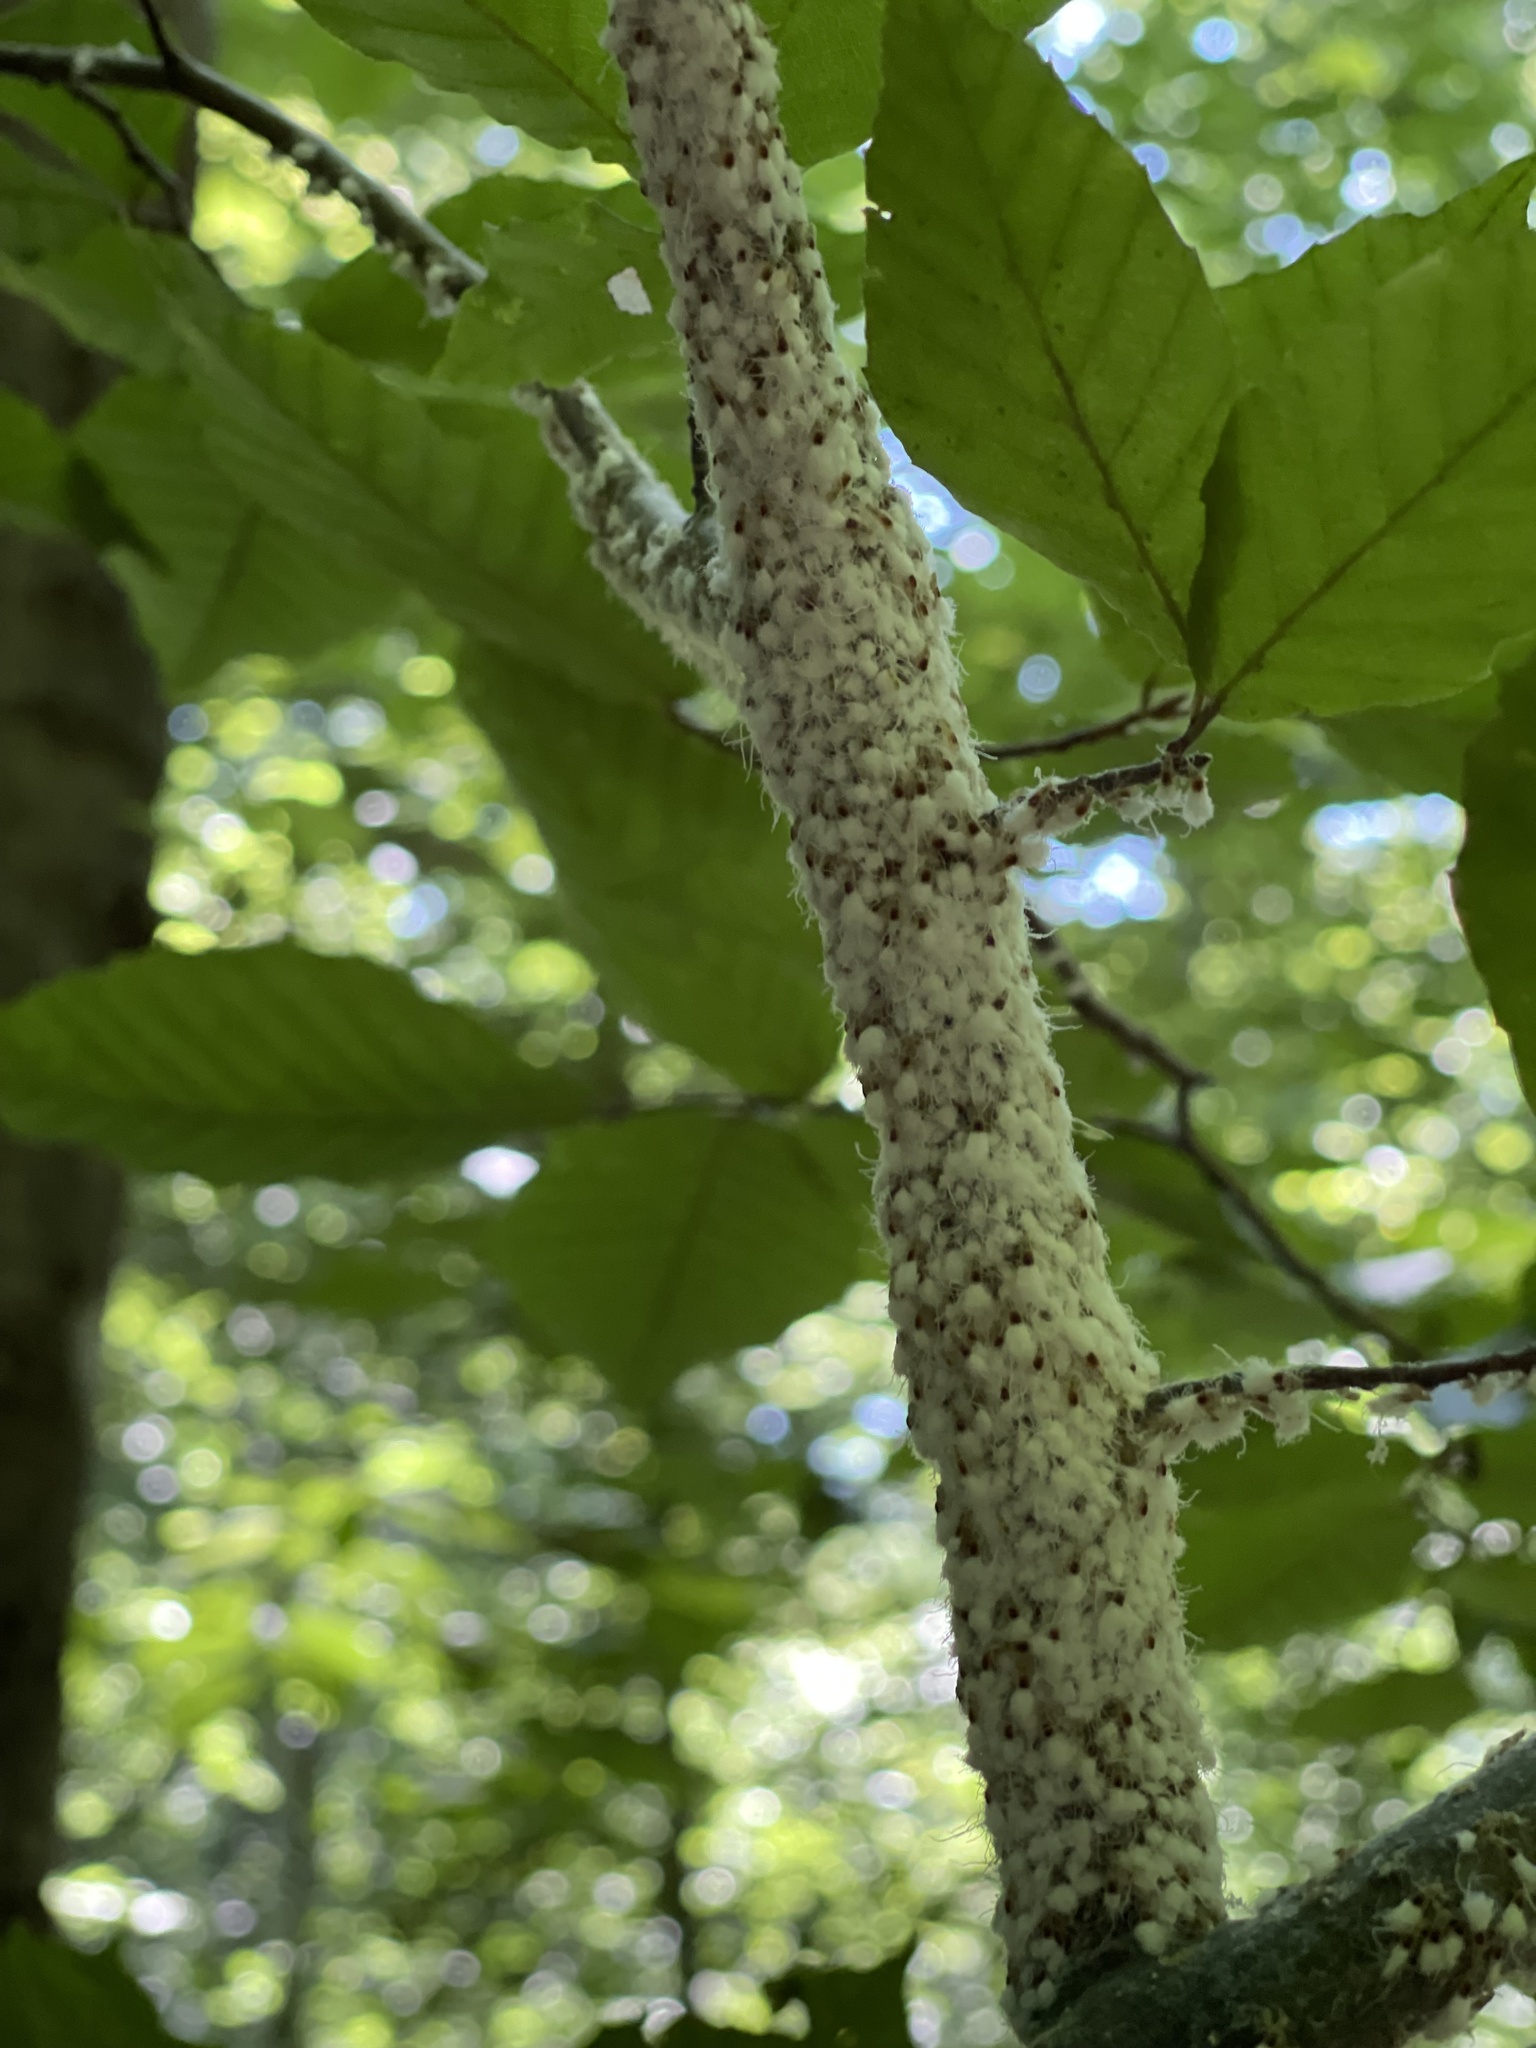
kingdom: Animalia
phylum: Arthropoda
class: Insecta
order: Hemiptera
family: Aphididae
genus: Grylloprociphilus
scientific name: Grylloprociphilus imbricator
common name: Beech blight aphid
